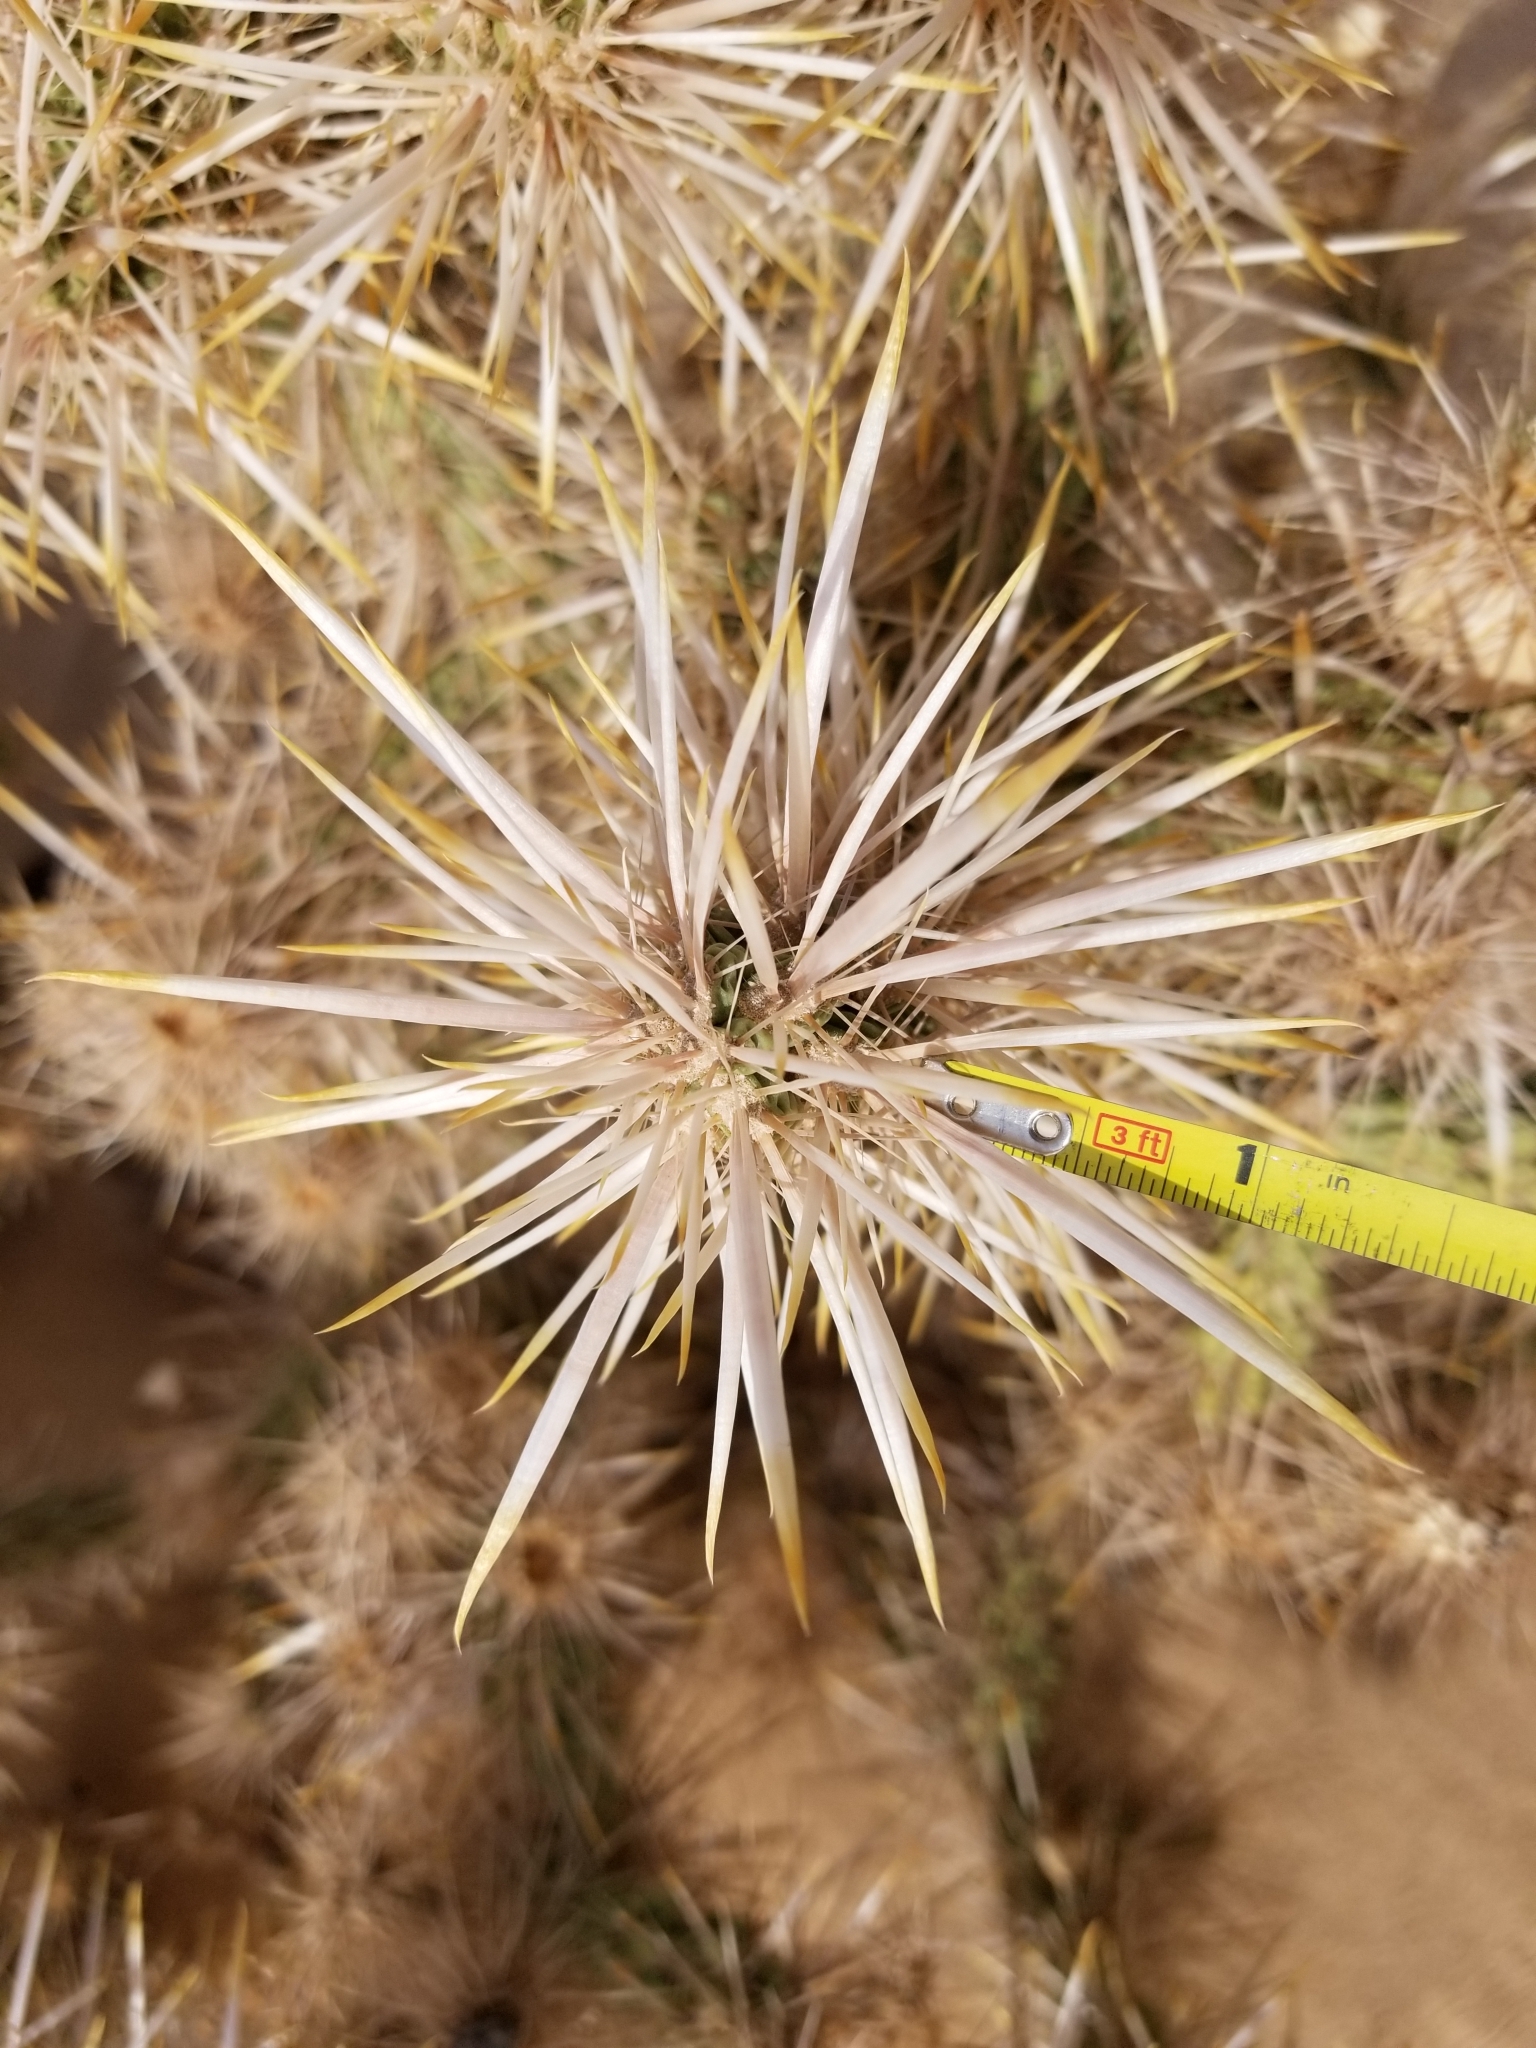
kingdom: Plantae
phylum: Tracheophyta
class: Magnoliopsida
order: Caryophyllales
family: Cactaceae
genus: Cylindropuntia
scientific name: Cylindropuntia echinocarpa
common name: Ground cholla
